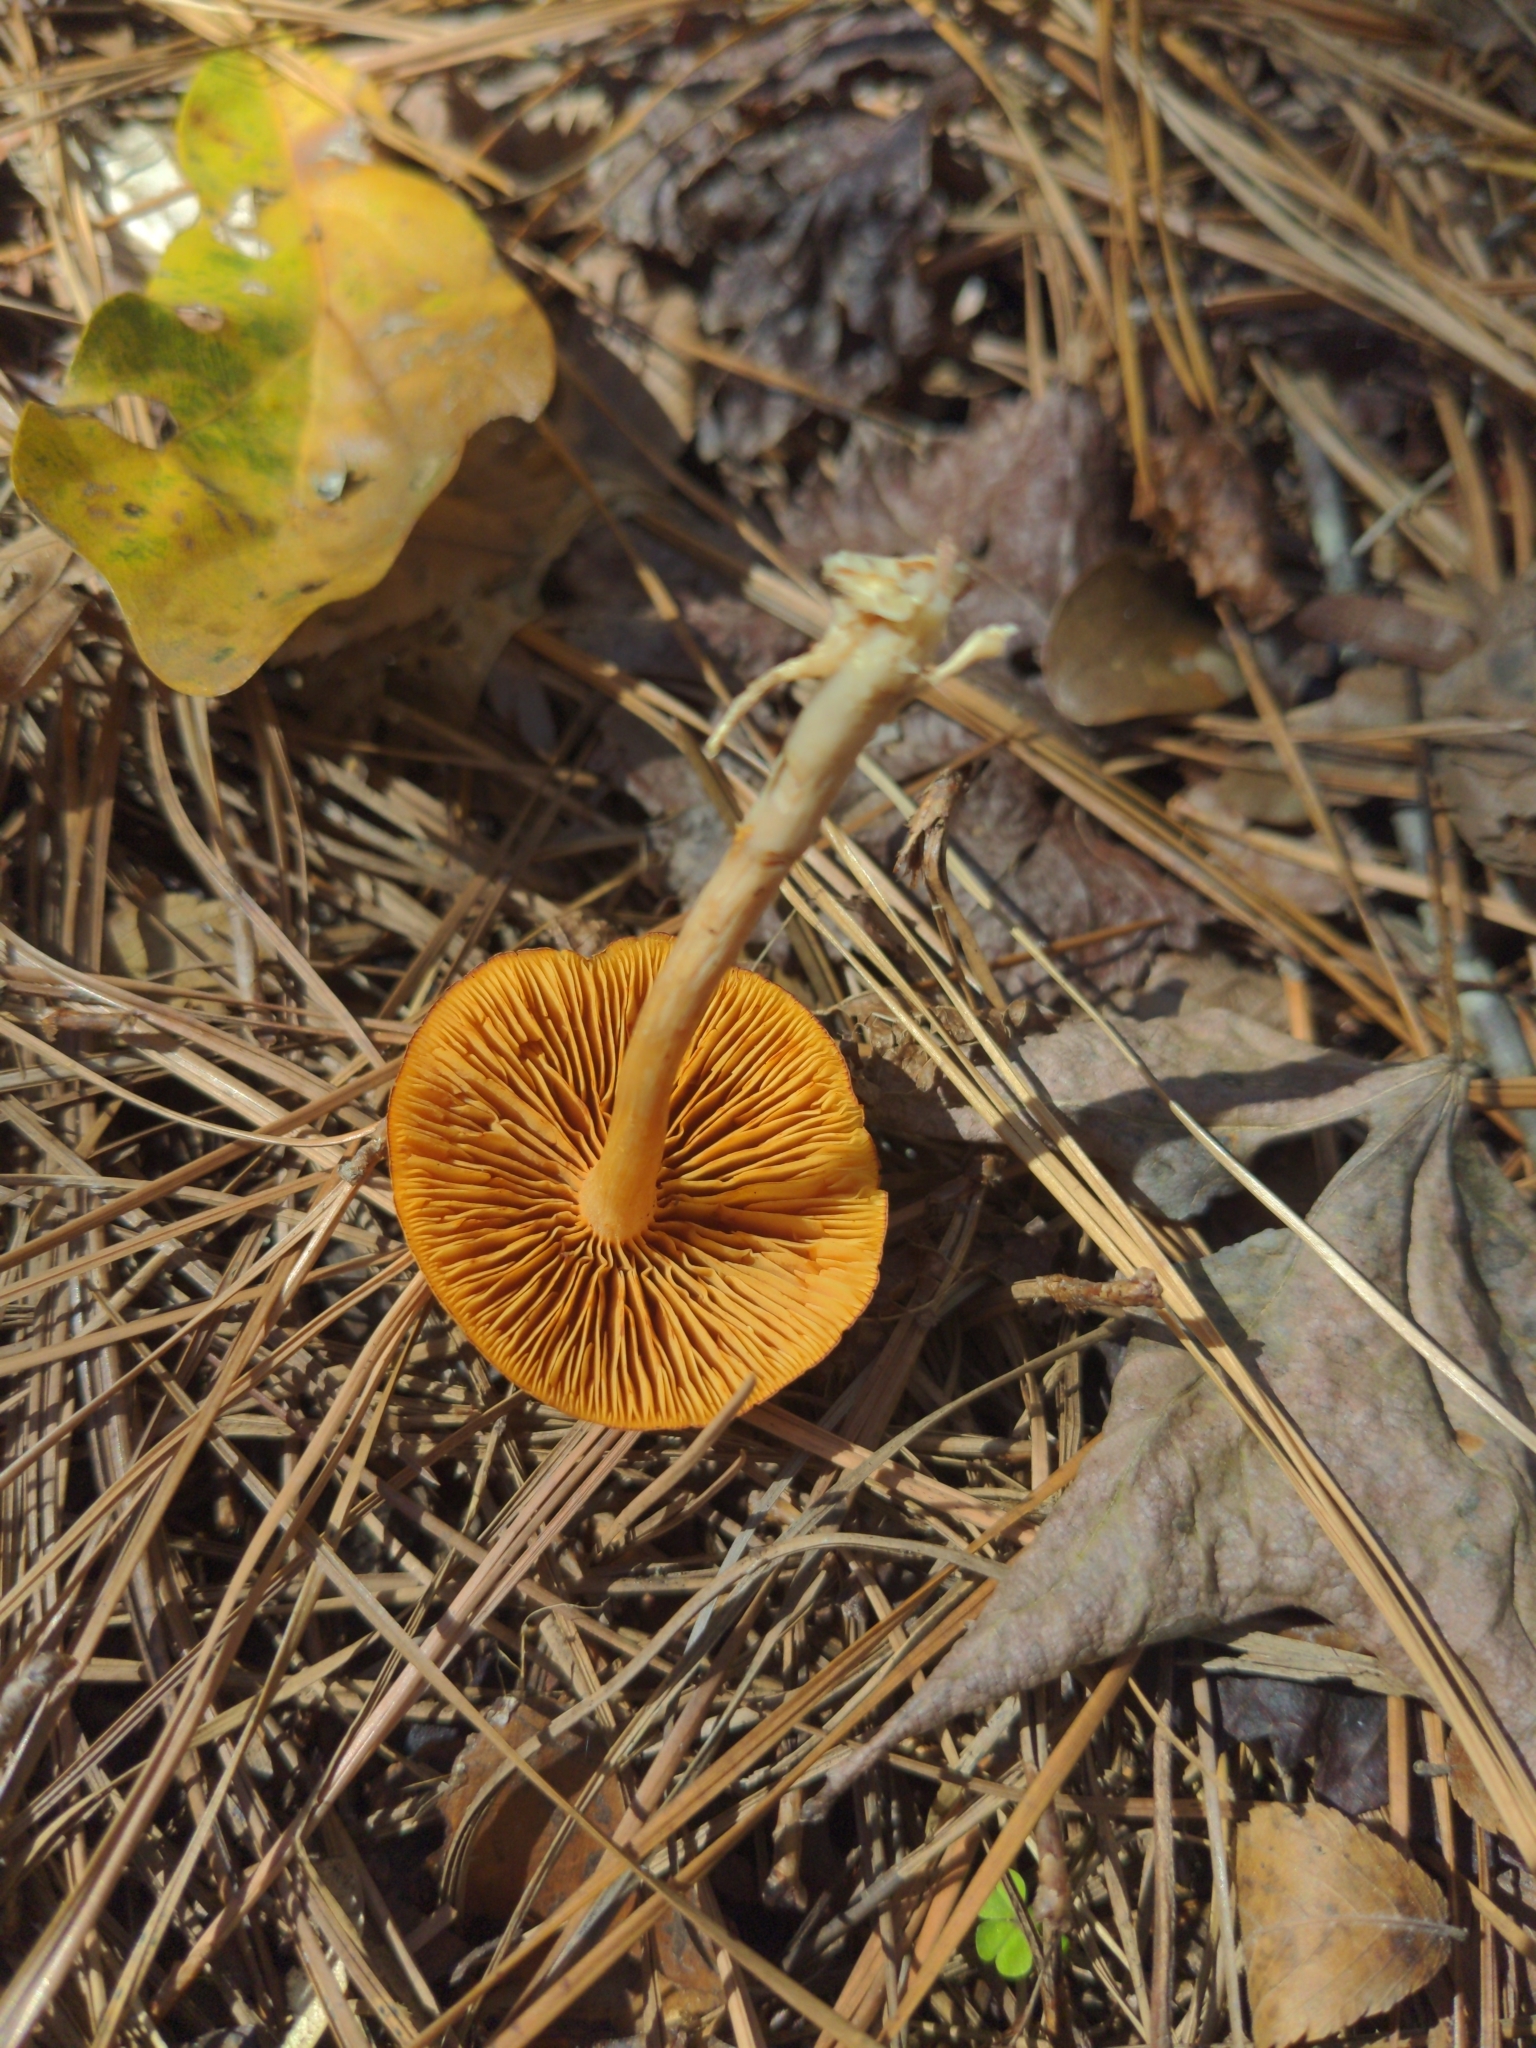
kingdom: Fungi
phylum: Basidiomycota
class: Agaricomycetes
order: Agaricales
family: Cortinariaceae
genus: Cortinarius
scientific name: Cortinarius lewisii
